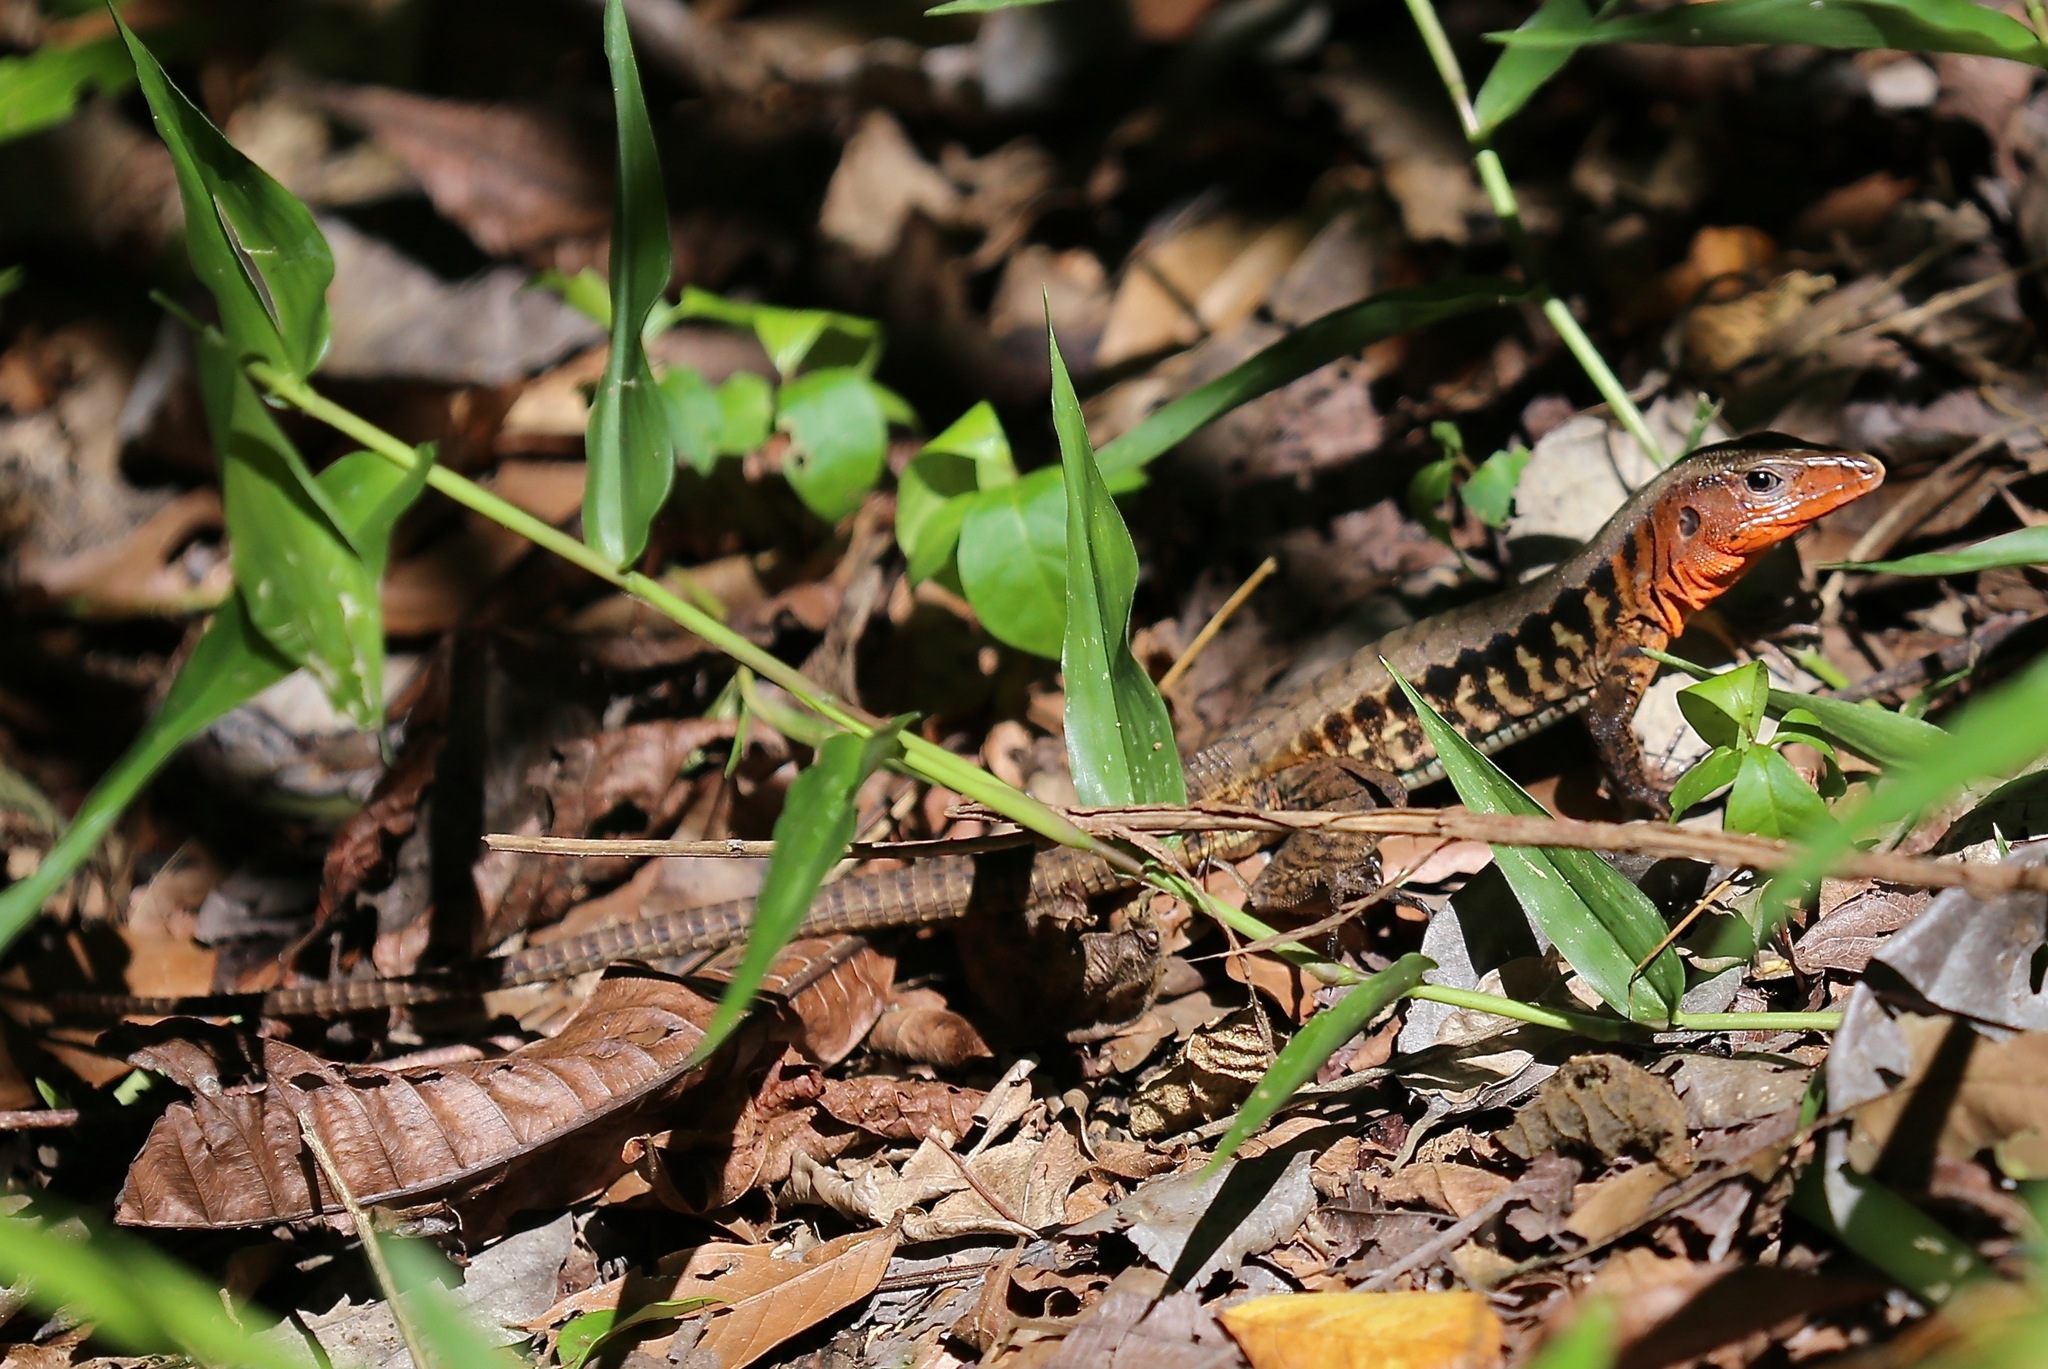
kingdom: Animalia
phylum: Chordata
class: Squamata
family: Teiidae
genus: Holcosus
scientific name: Holcosus leptophrys
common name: Delicate ameiva
